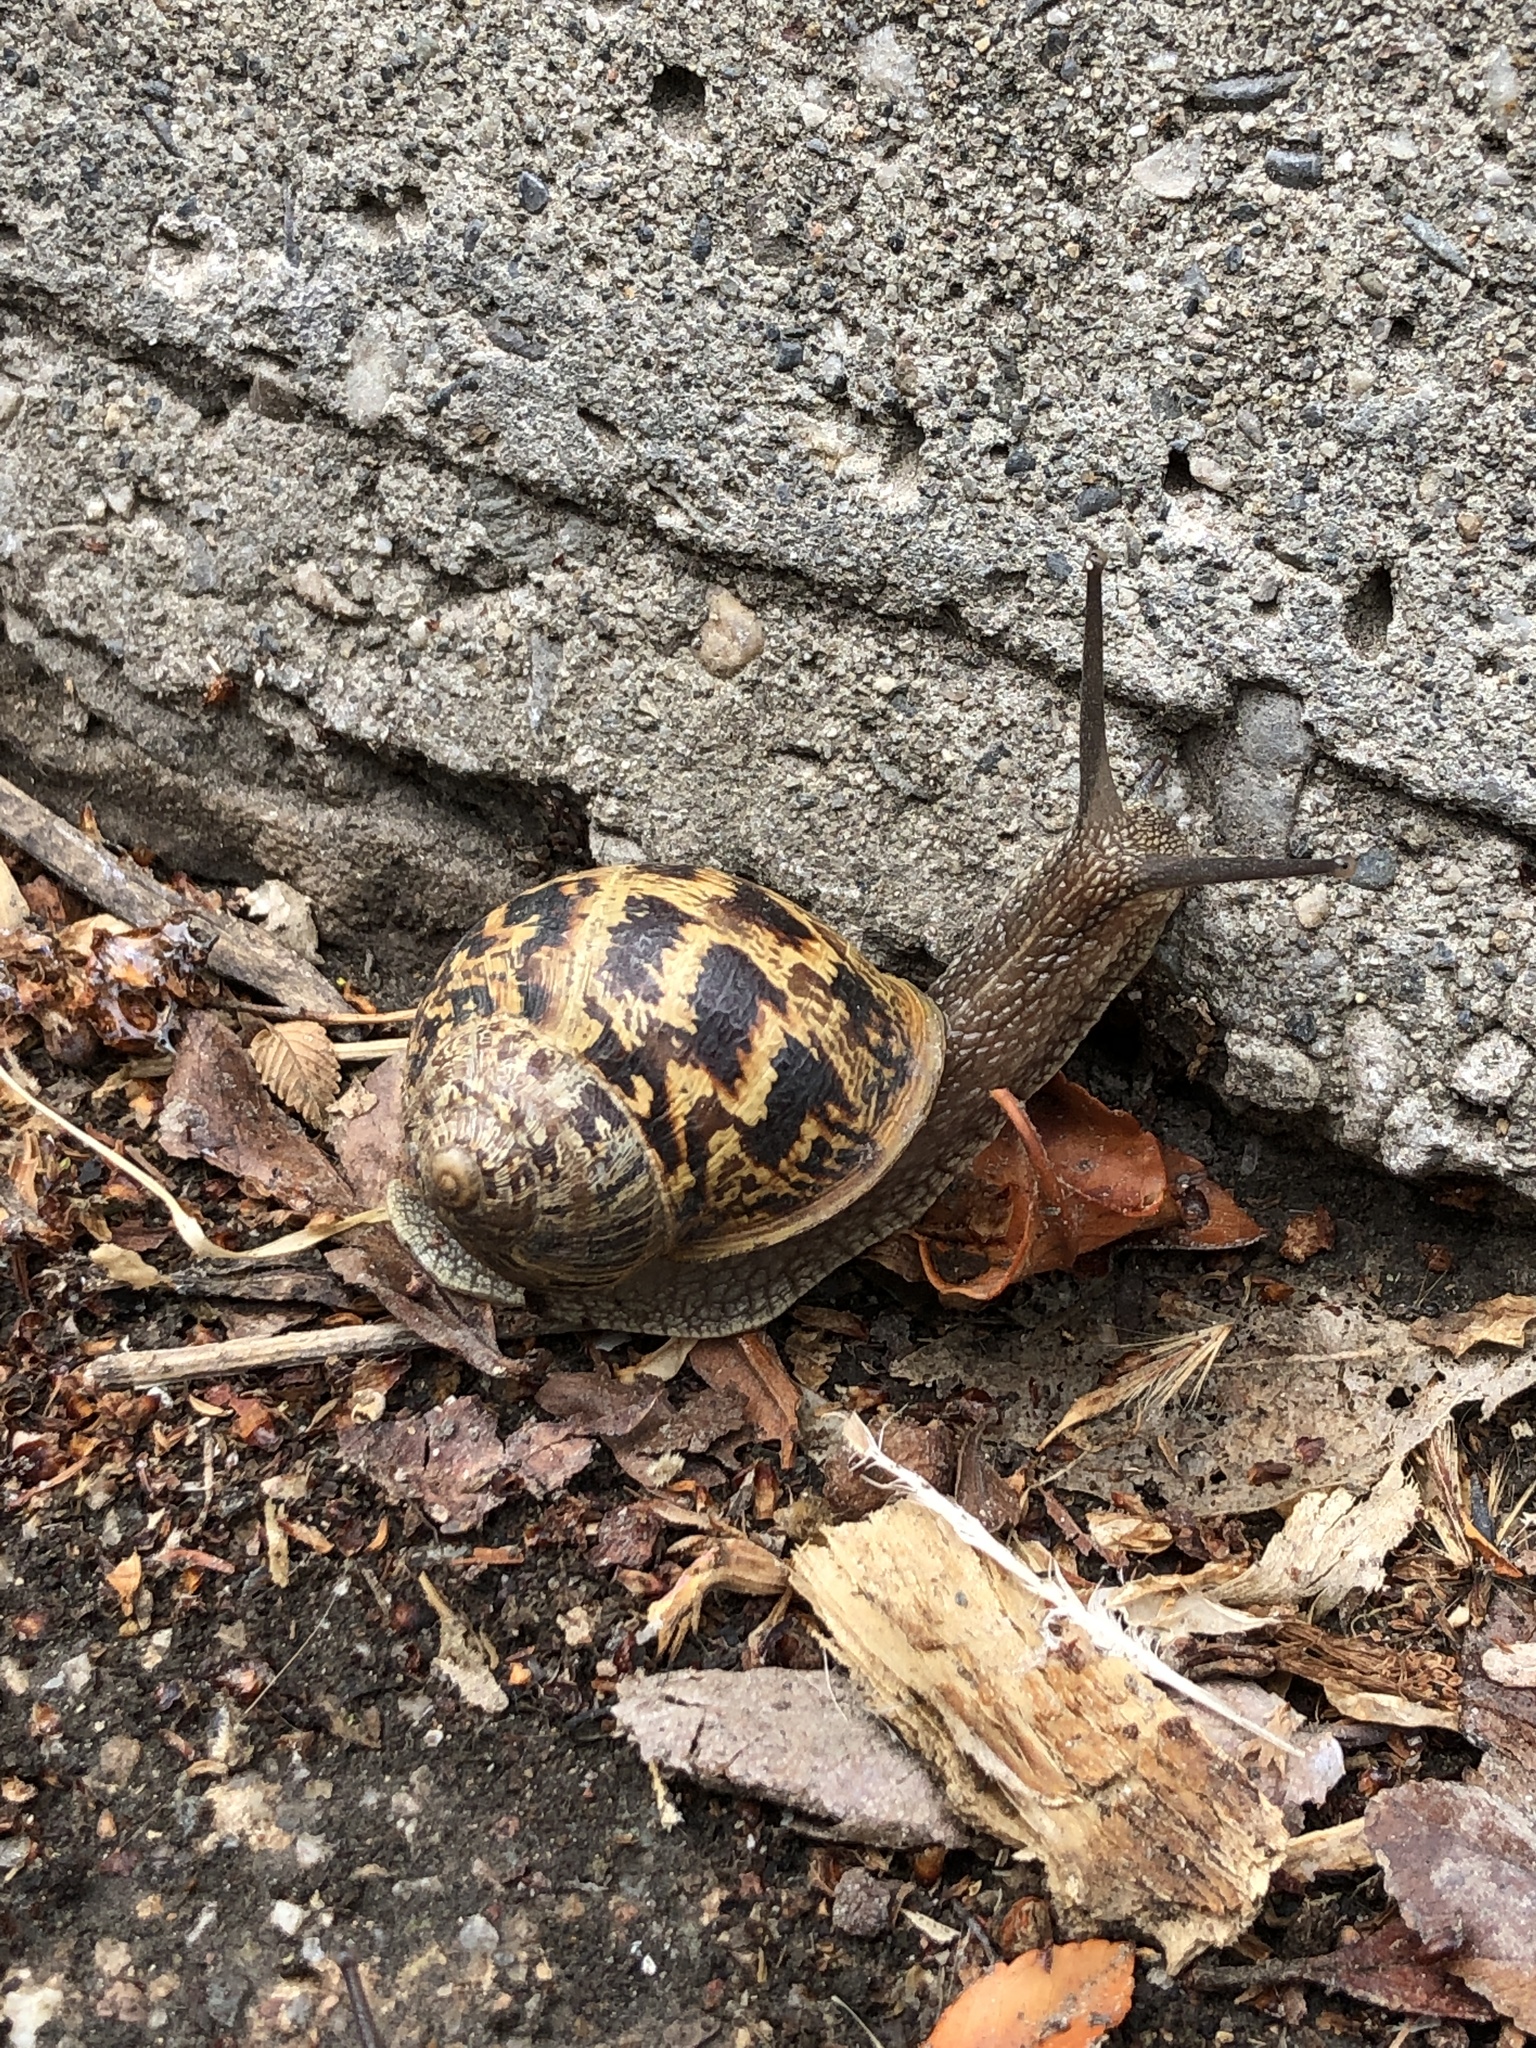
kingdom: Animalia
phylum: Mollusca
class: Gastropoda
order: Stylommatophora
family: Helicidae
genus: Cornu
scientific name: Cornu aspersum
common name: Brown garden snail
